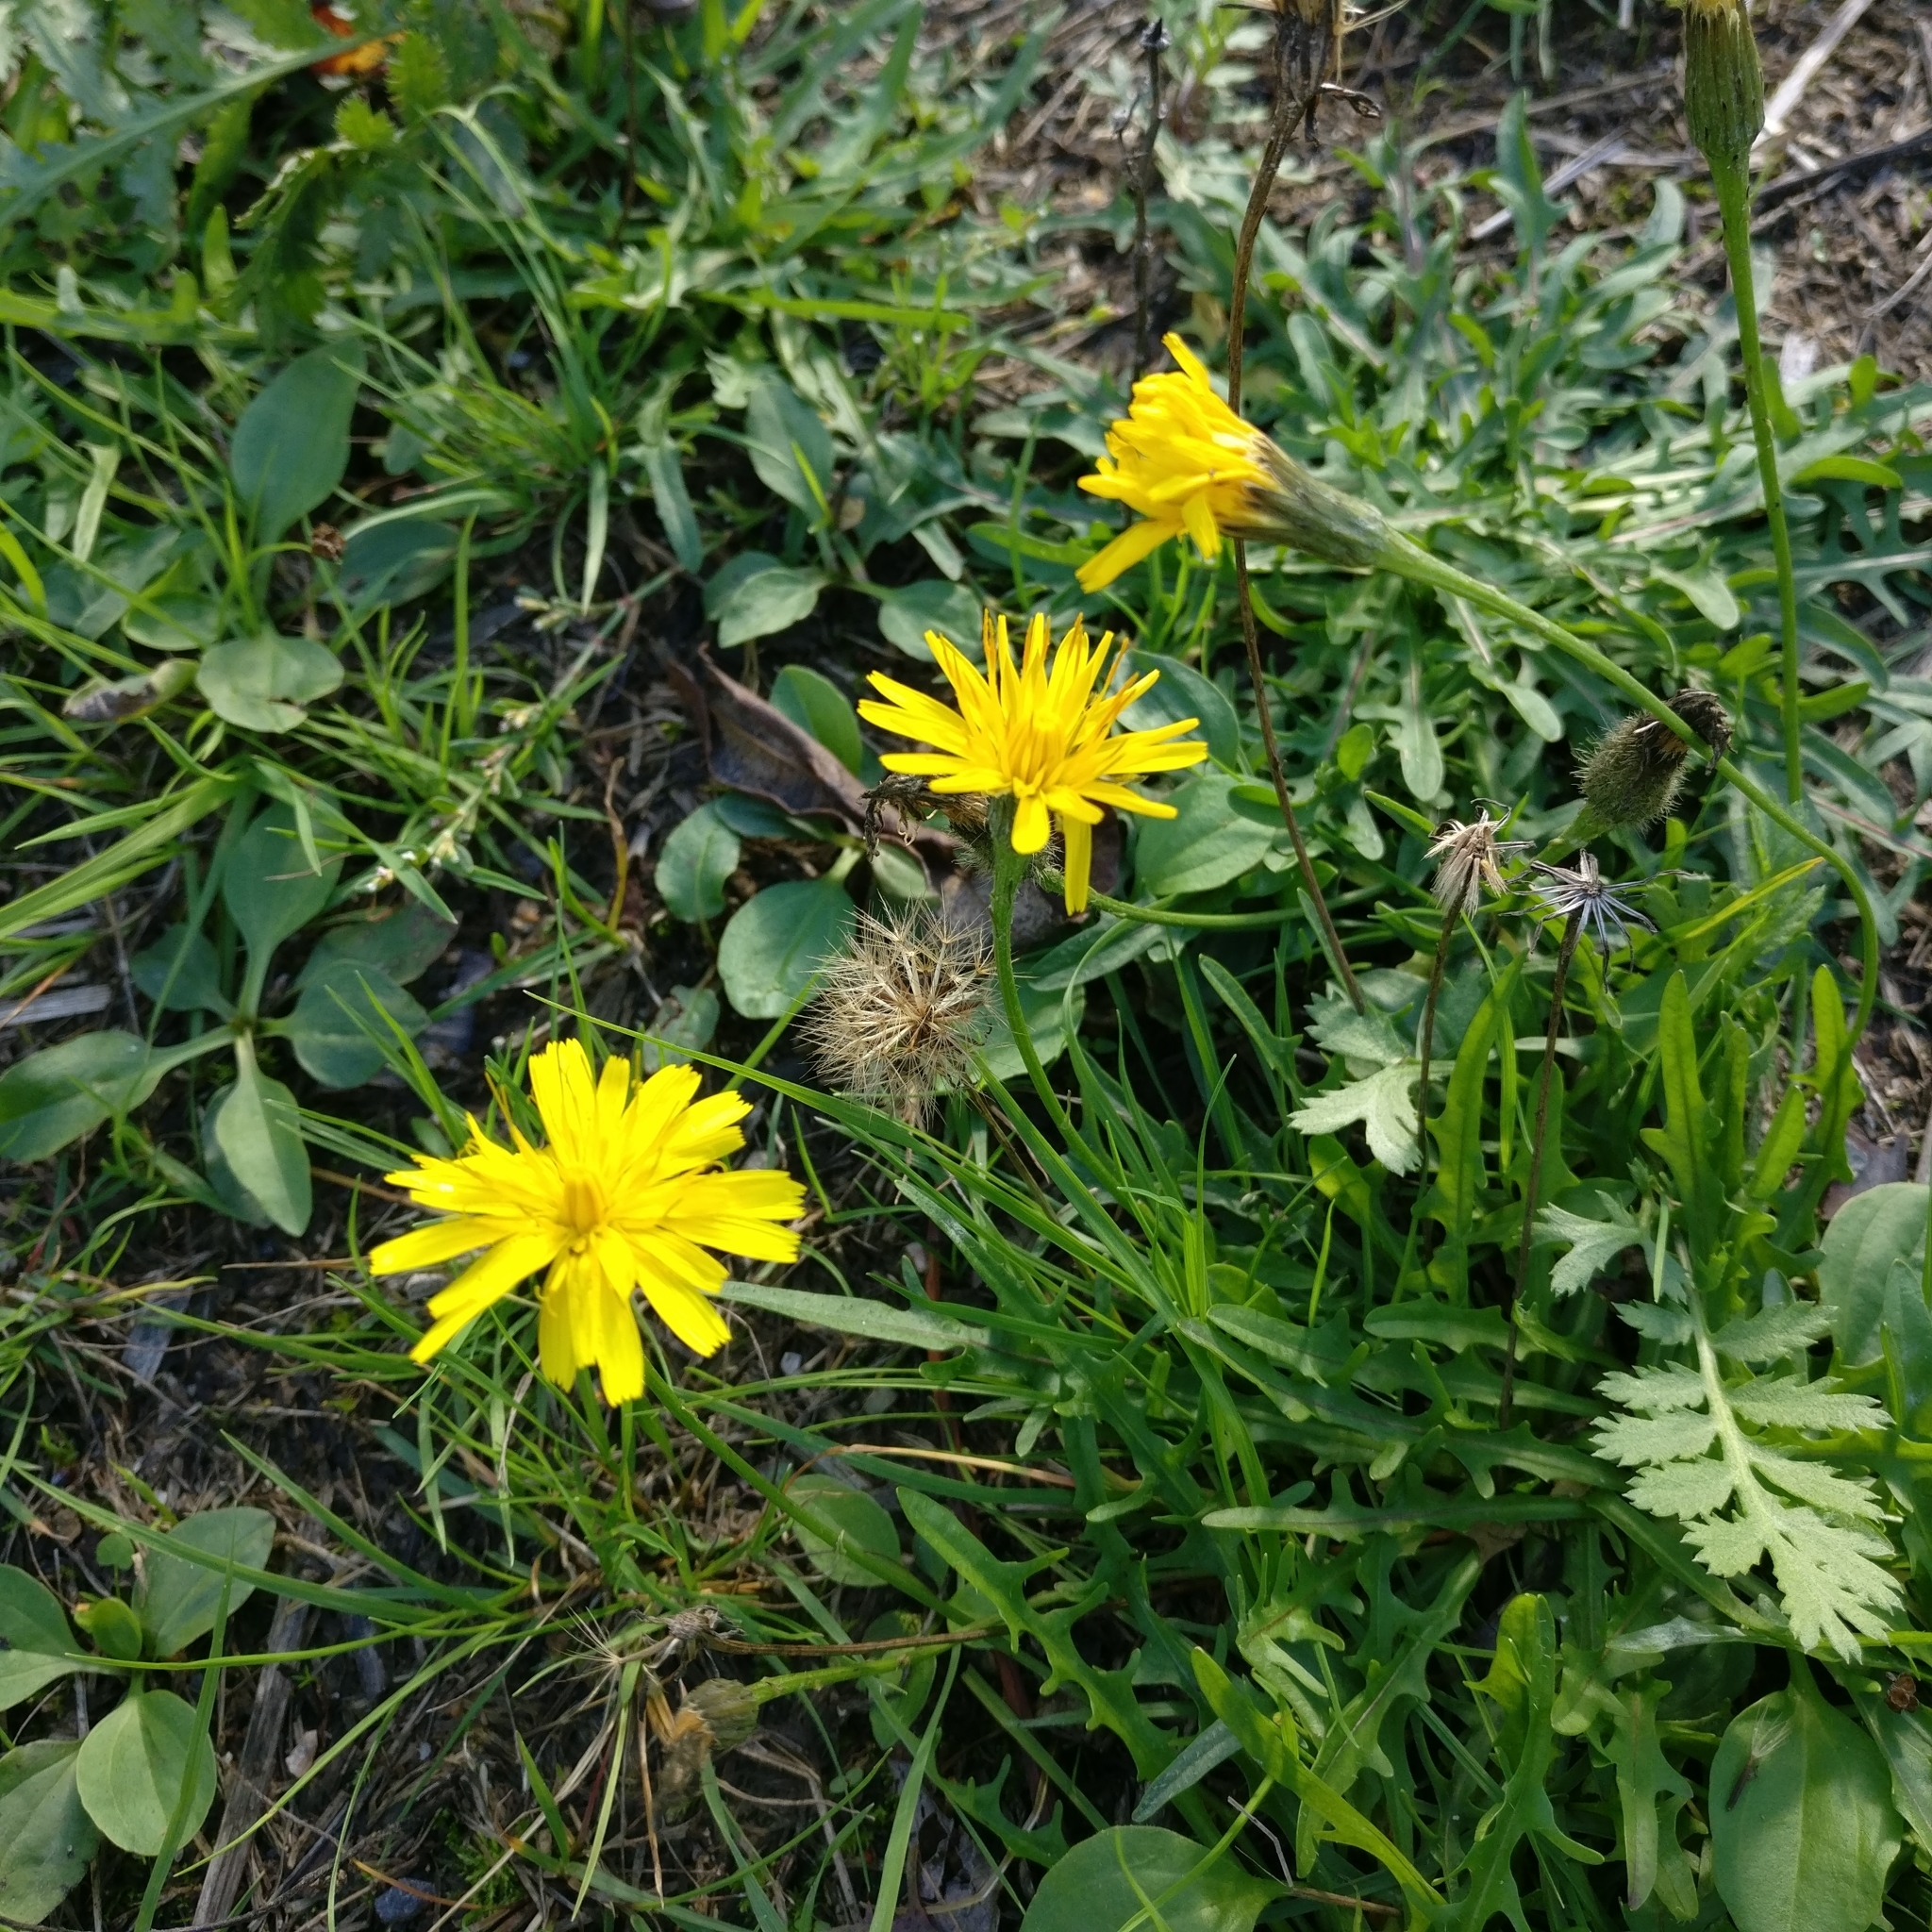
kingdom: Plantae
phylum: Tracheophyta
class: Magnoliopsida
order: Asterales
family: Asteraceae
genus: Scorzoneroides
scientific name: Scorzoneroides autumnalis
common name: Autumn hawkbit
